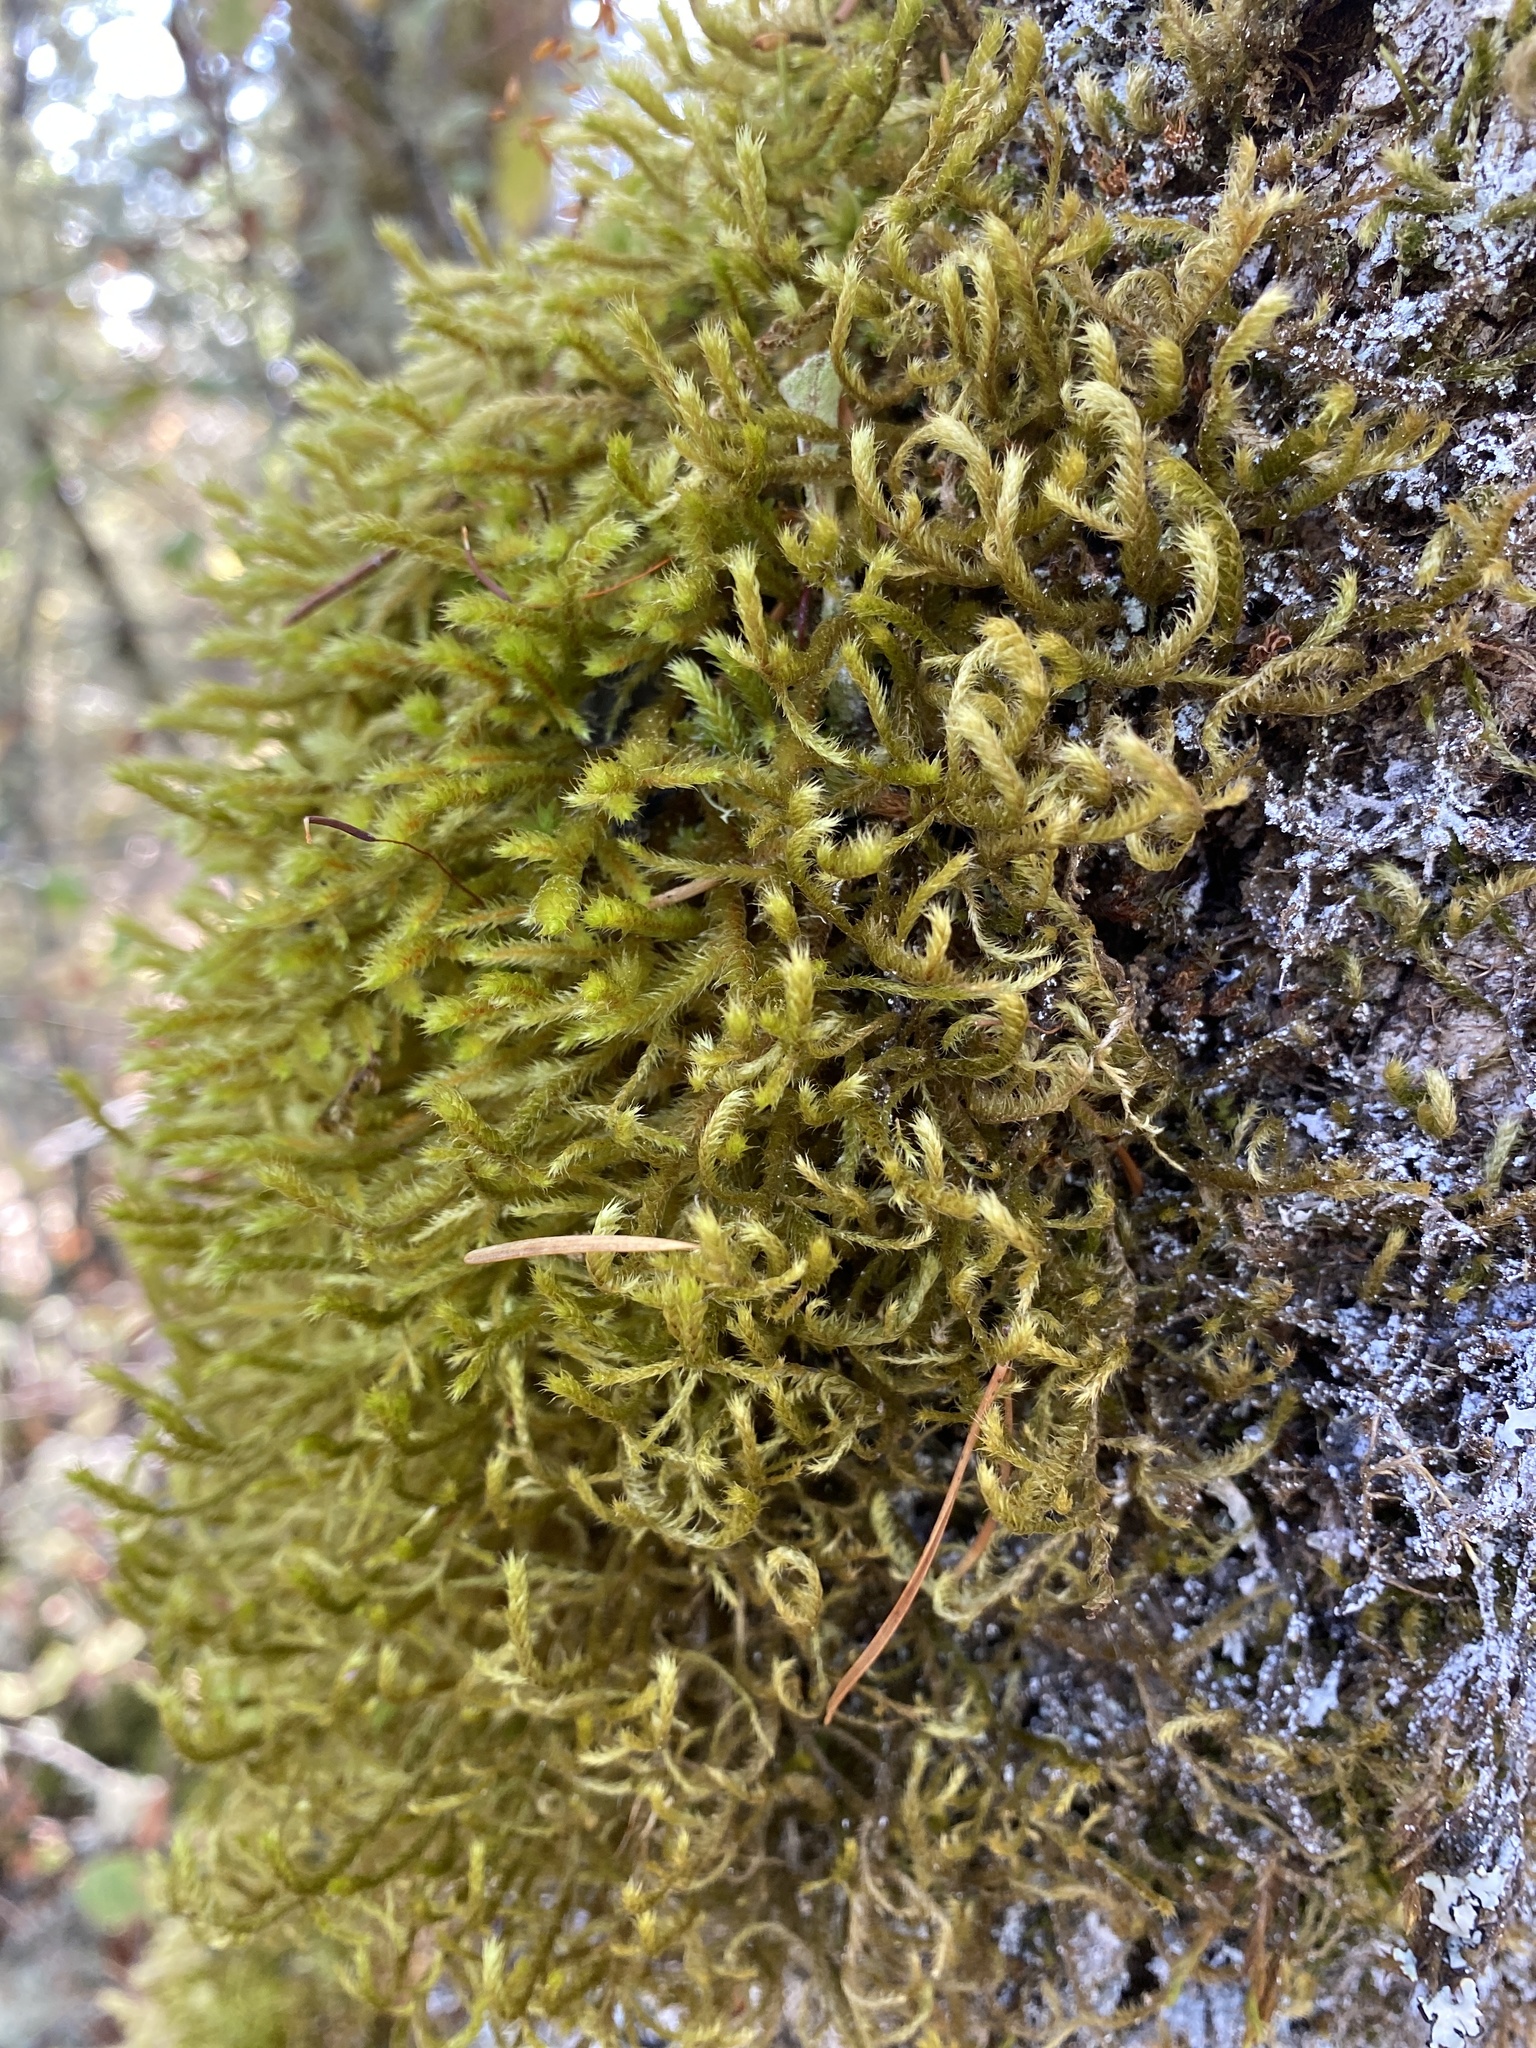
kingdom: Plantae
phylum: Bryophyta
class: Bryopsida
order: Hypnales
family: Antitrichiaceae
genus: Antitrichia
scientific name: Antitrichia curtipendula
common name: Pendulous wing-moss
